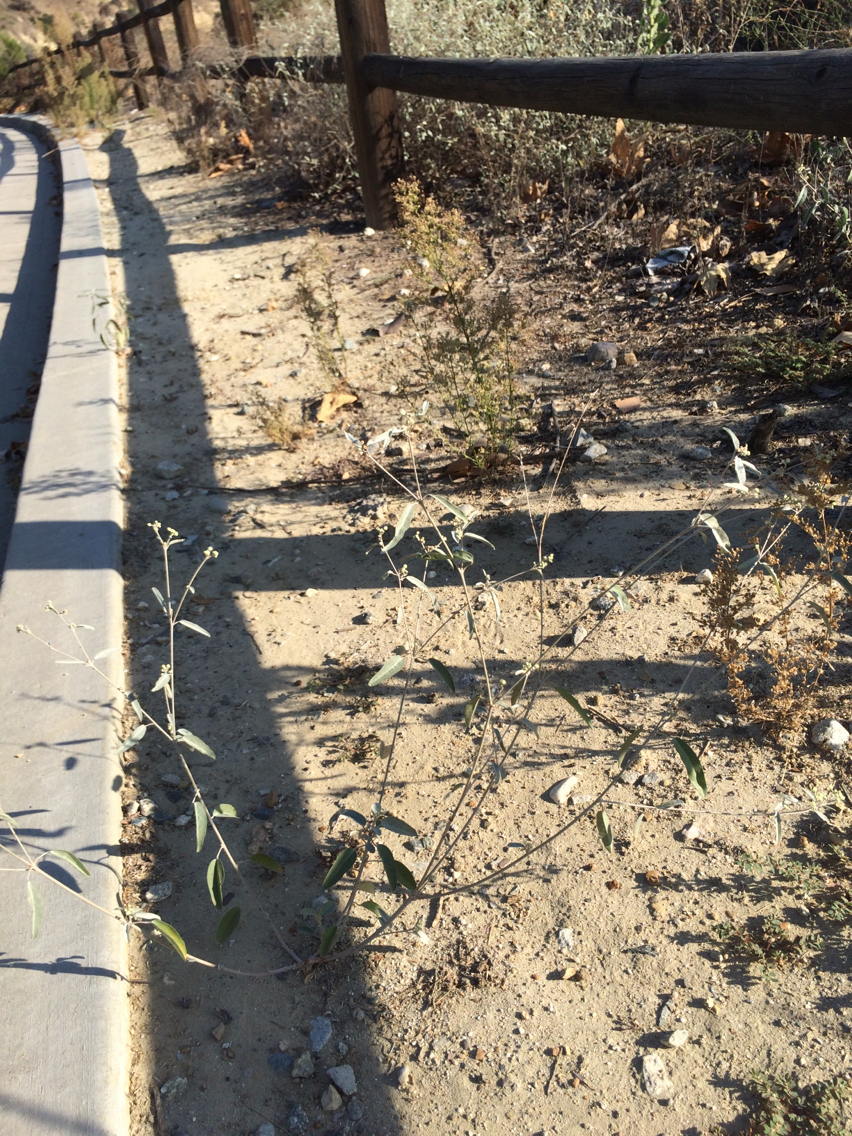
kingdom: Plantae
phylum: Tracheophyta
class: Magnoliopsida
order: Malpighiales
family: Euphorbiaceae
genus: Croton
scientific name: Croton californicus
